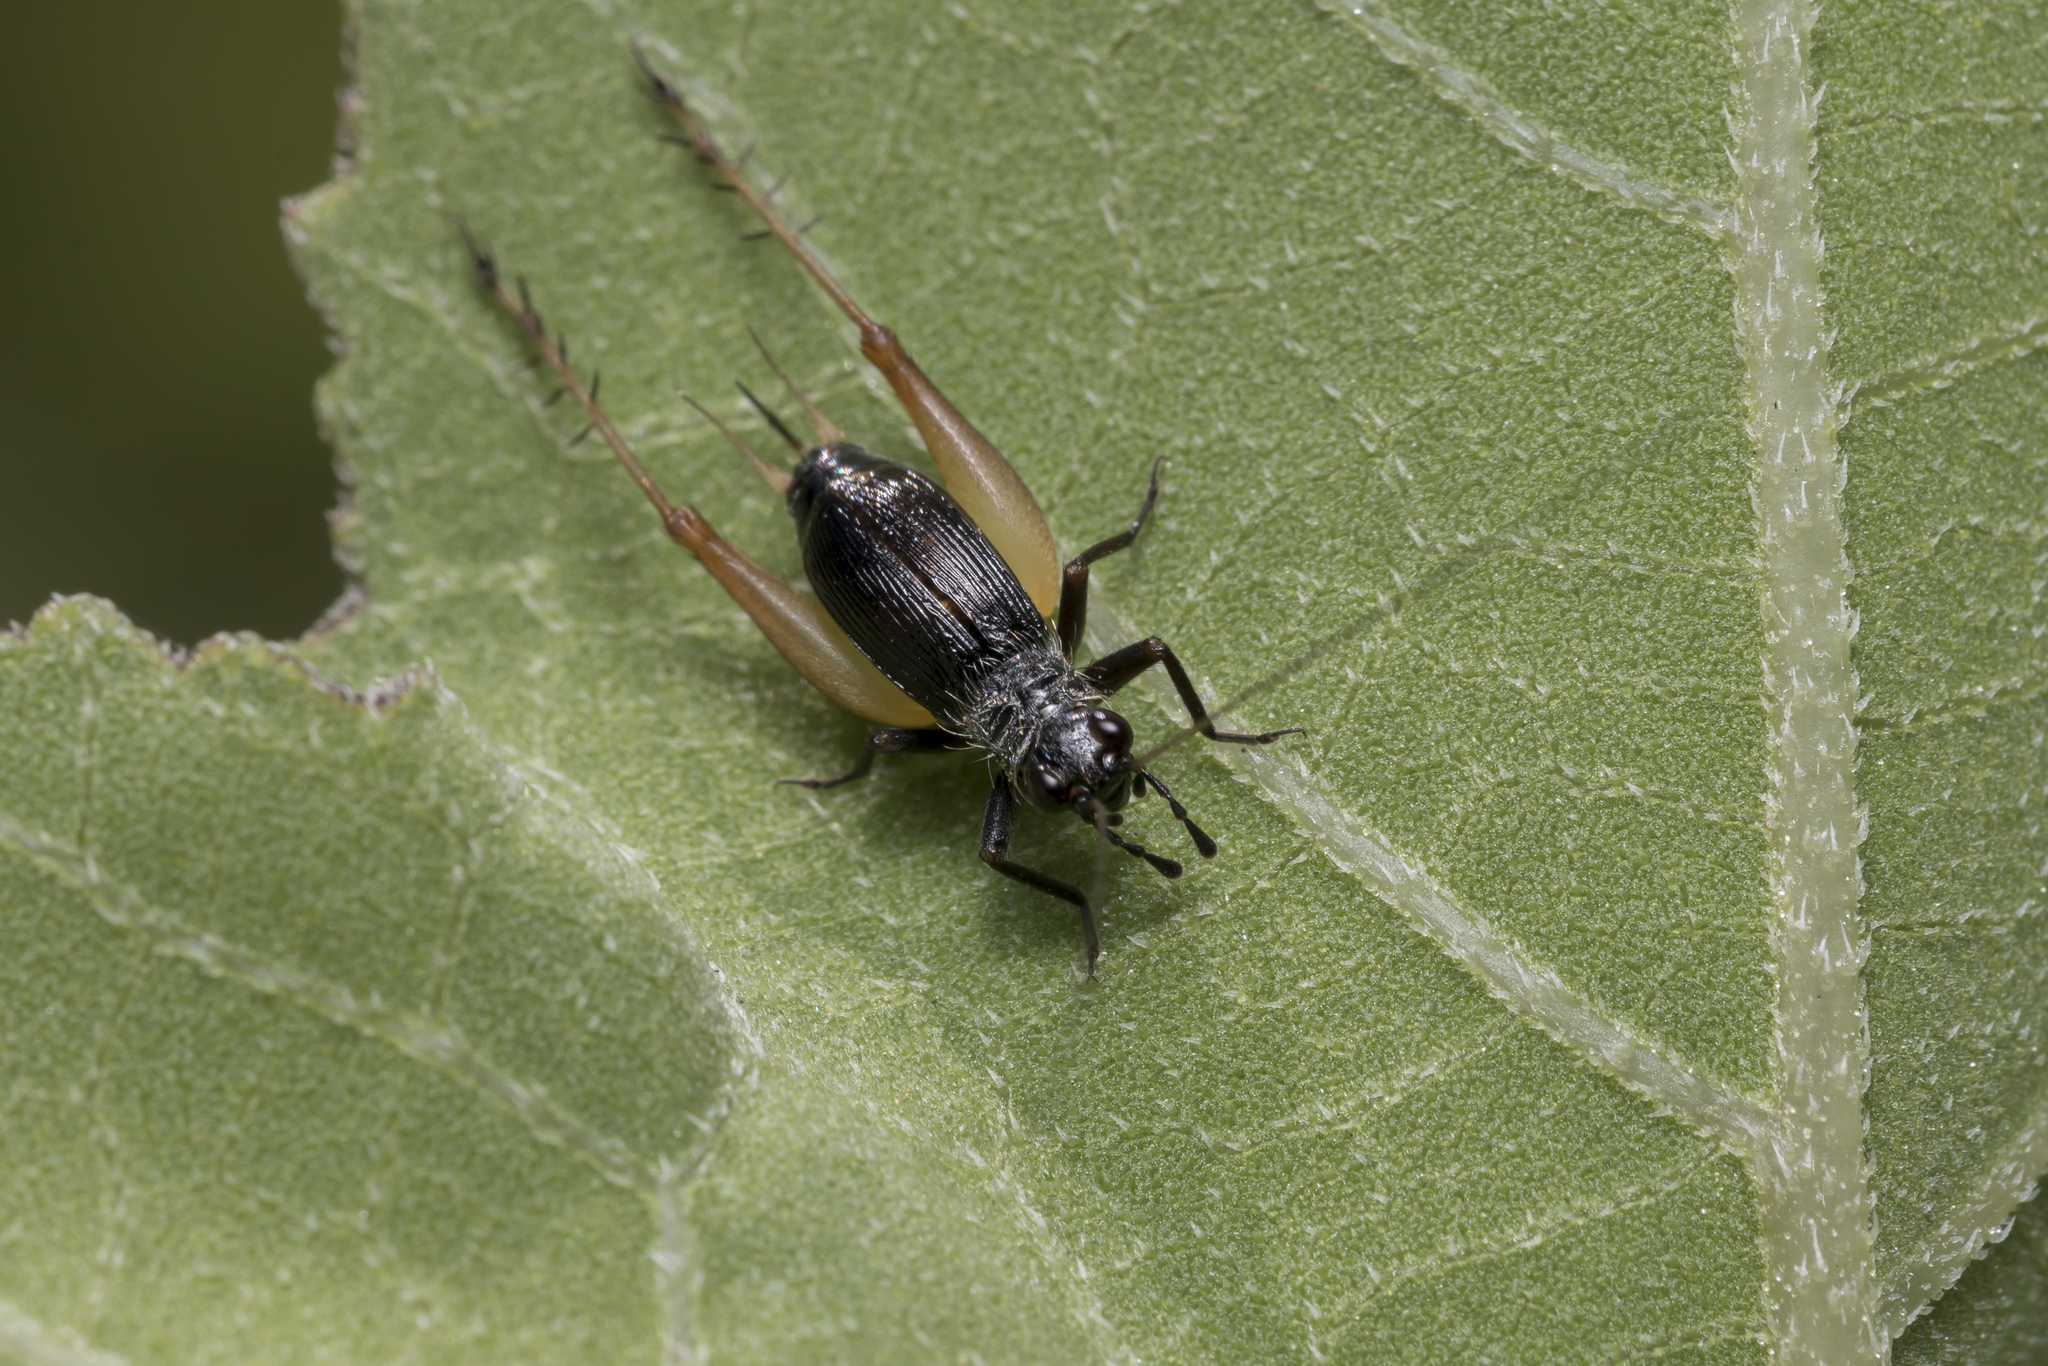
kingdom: Animalia
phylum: Arthropoda
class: Insecta
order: Orthoptera
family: Trigonidiidae
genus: Trigonidium
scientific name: Trigonidium cicindeloides
